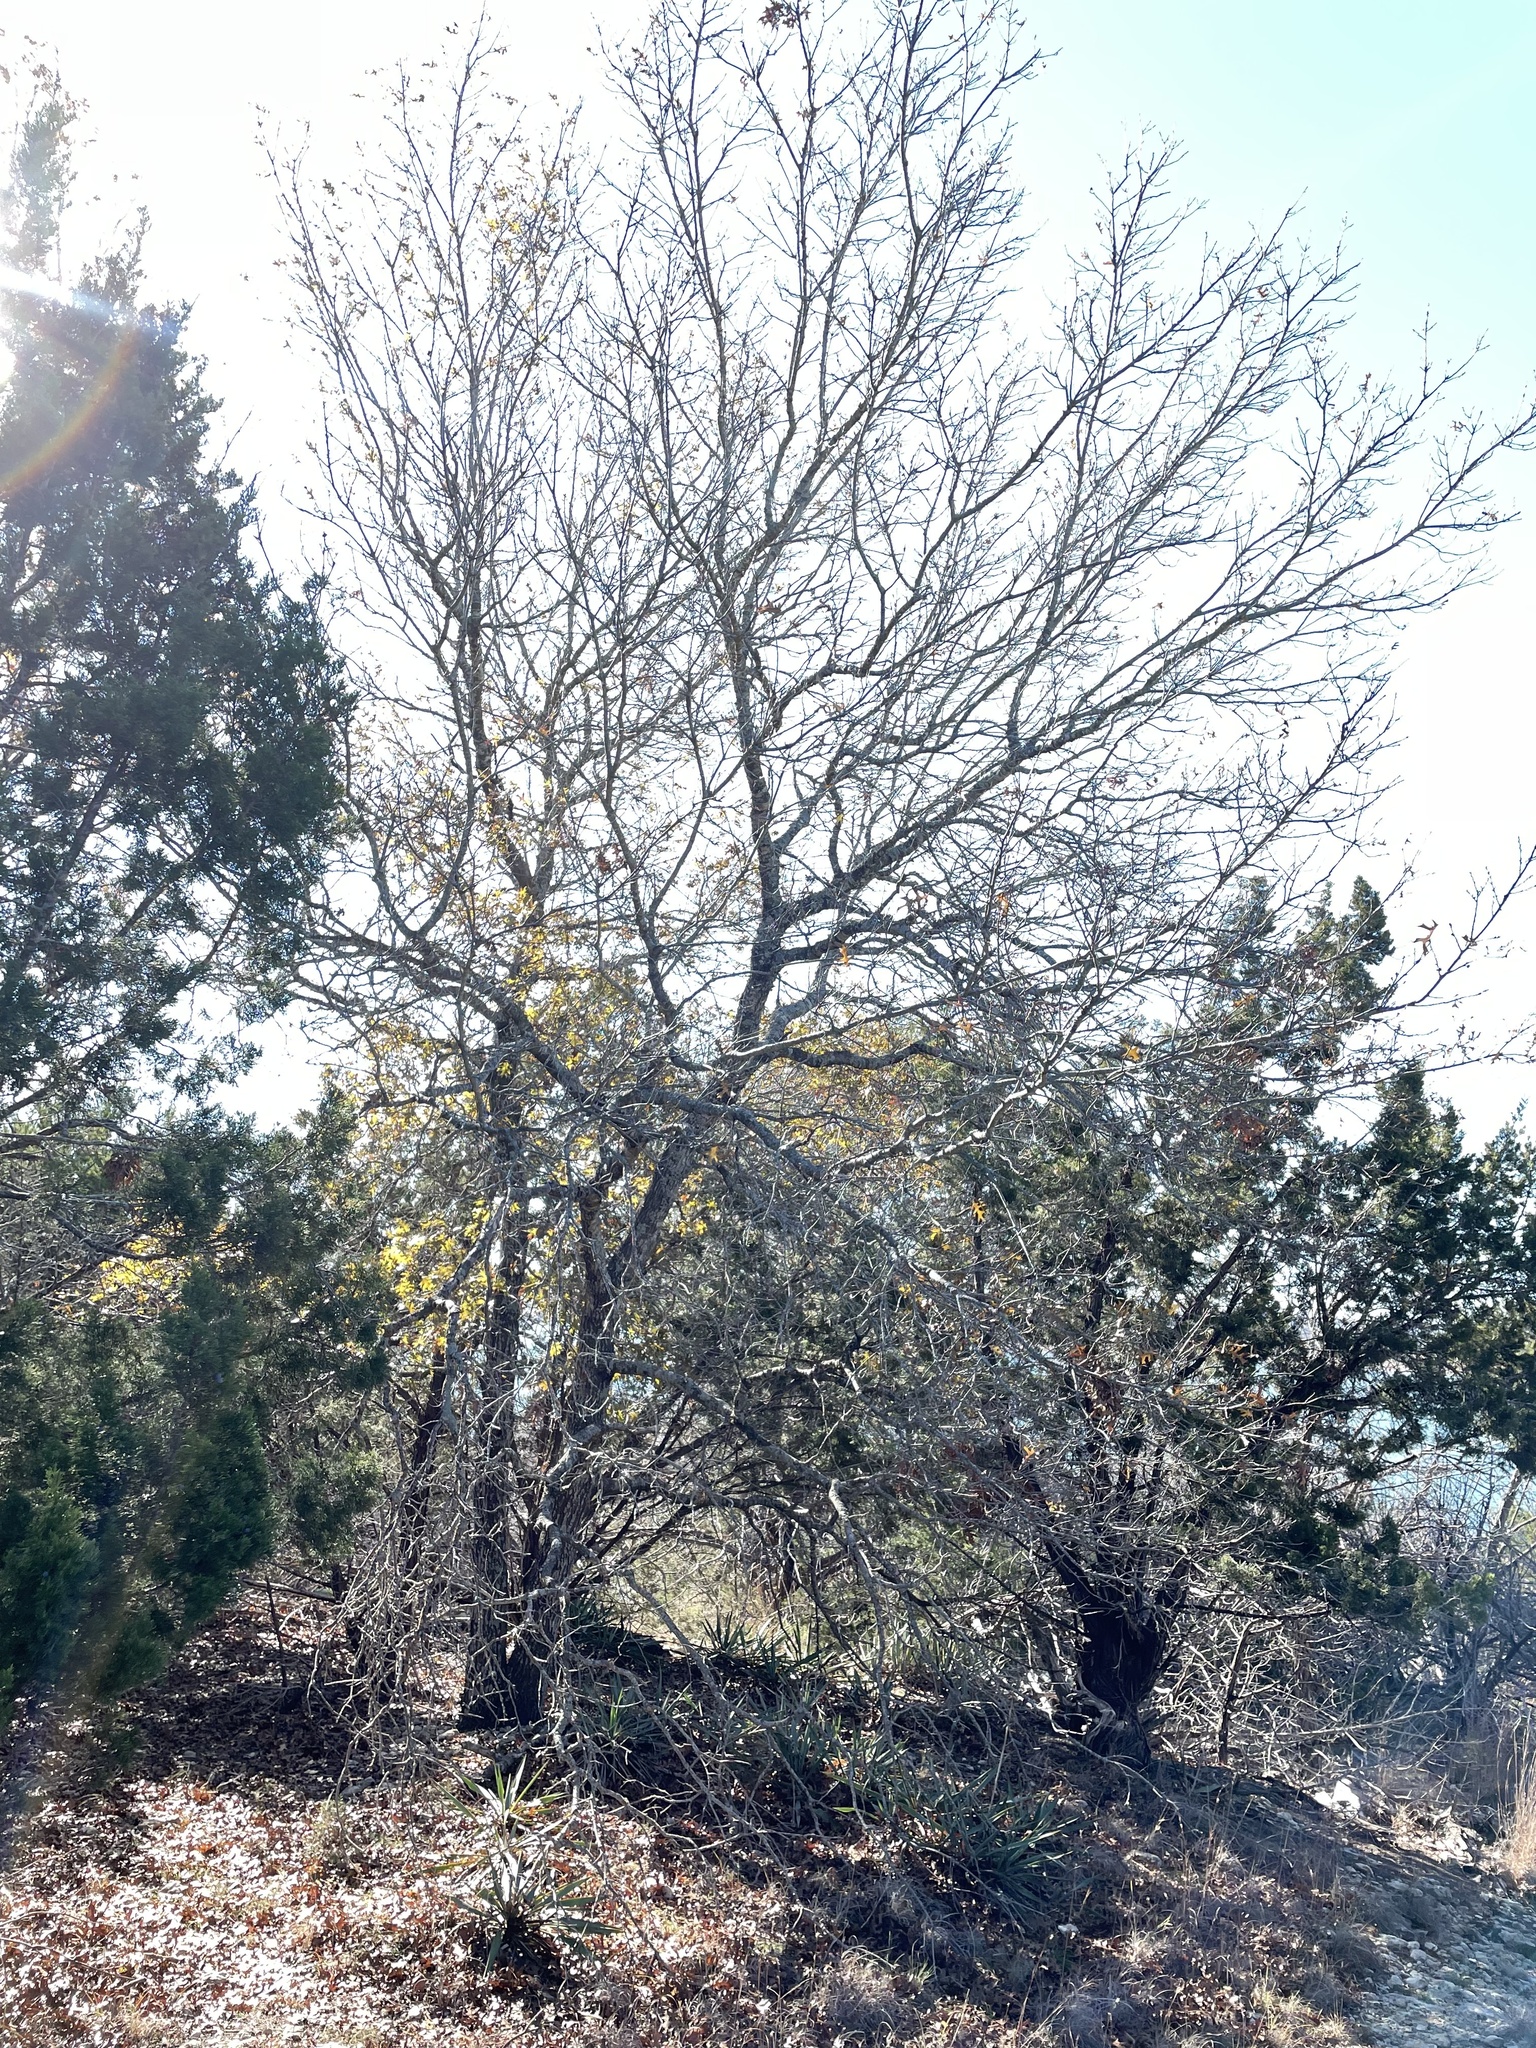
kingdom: Plantae
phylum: Tracheophyta
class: Magnoliopsida
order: Fagales
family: Fagaceae
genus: Quercus
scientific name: Quercus buckleyi
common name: Buckley oak
